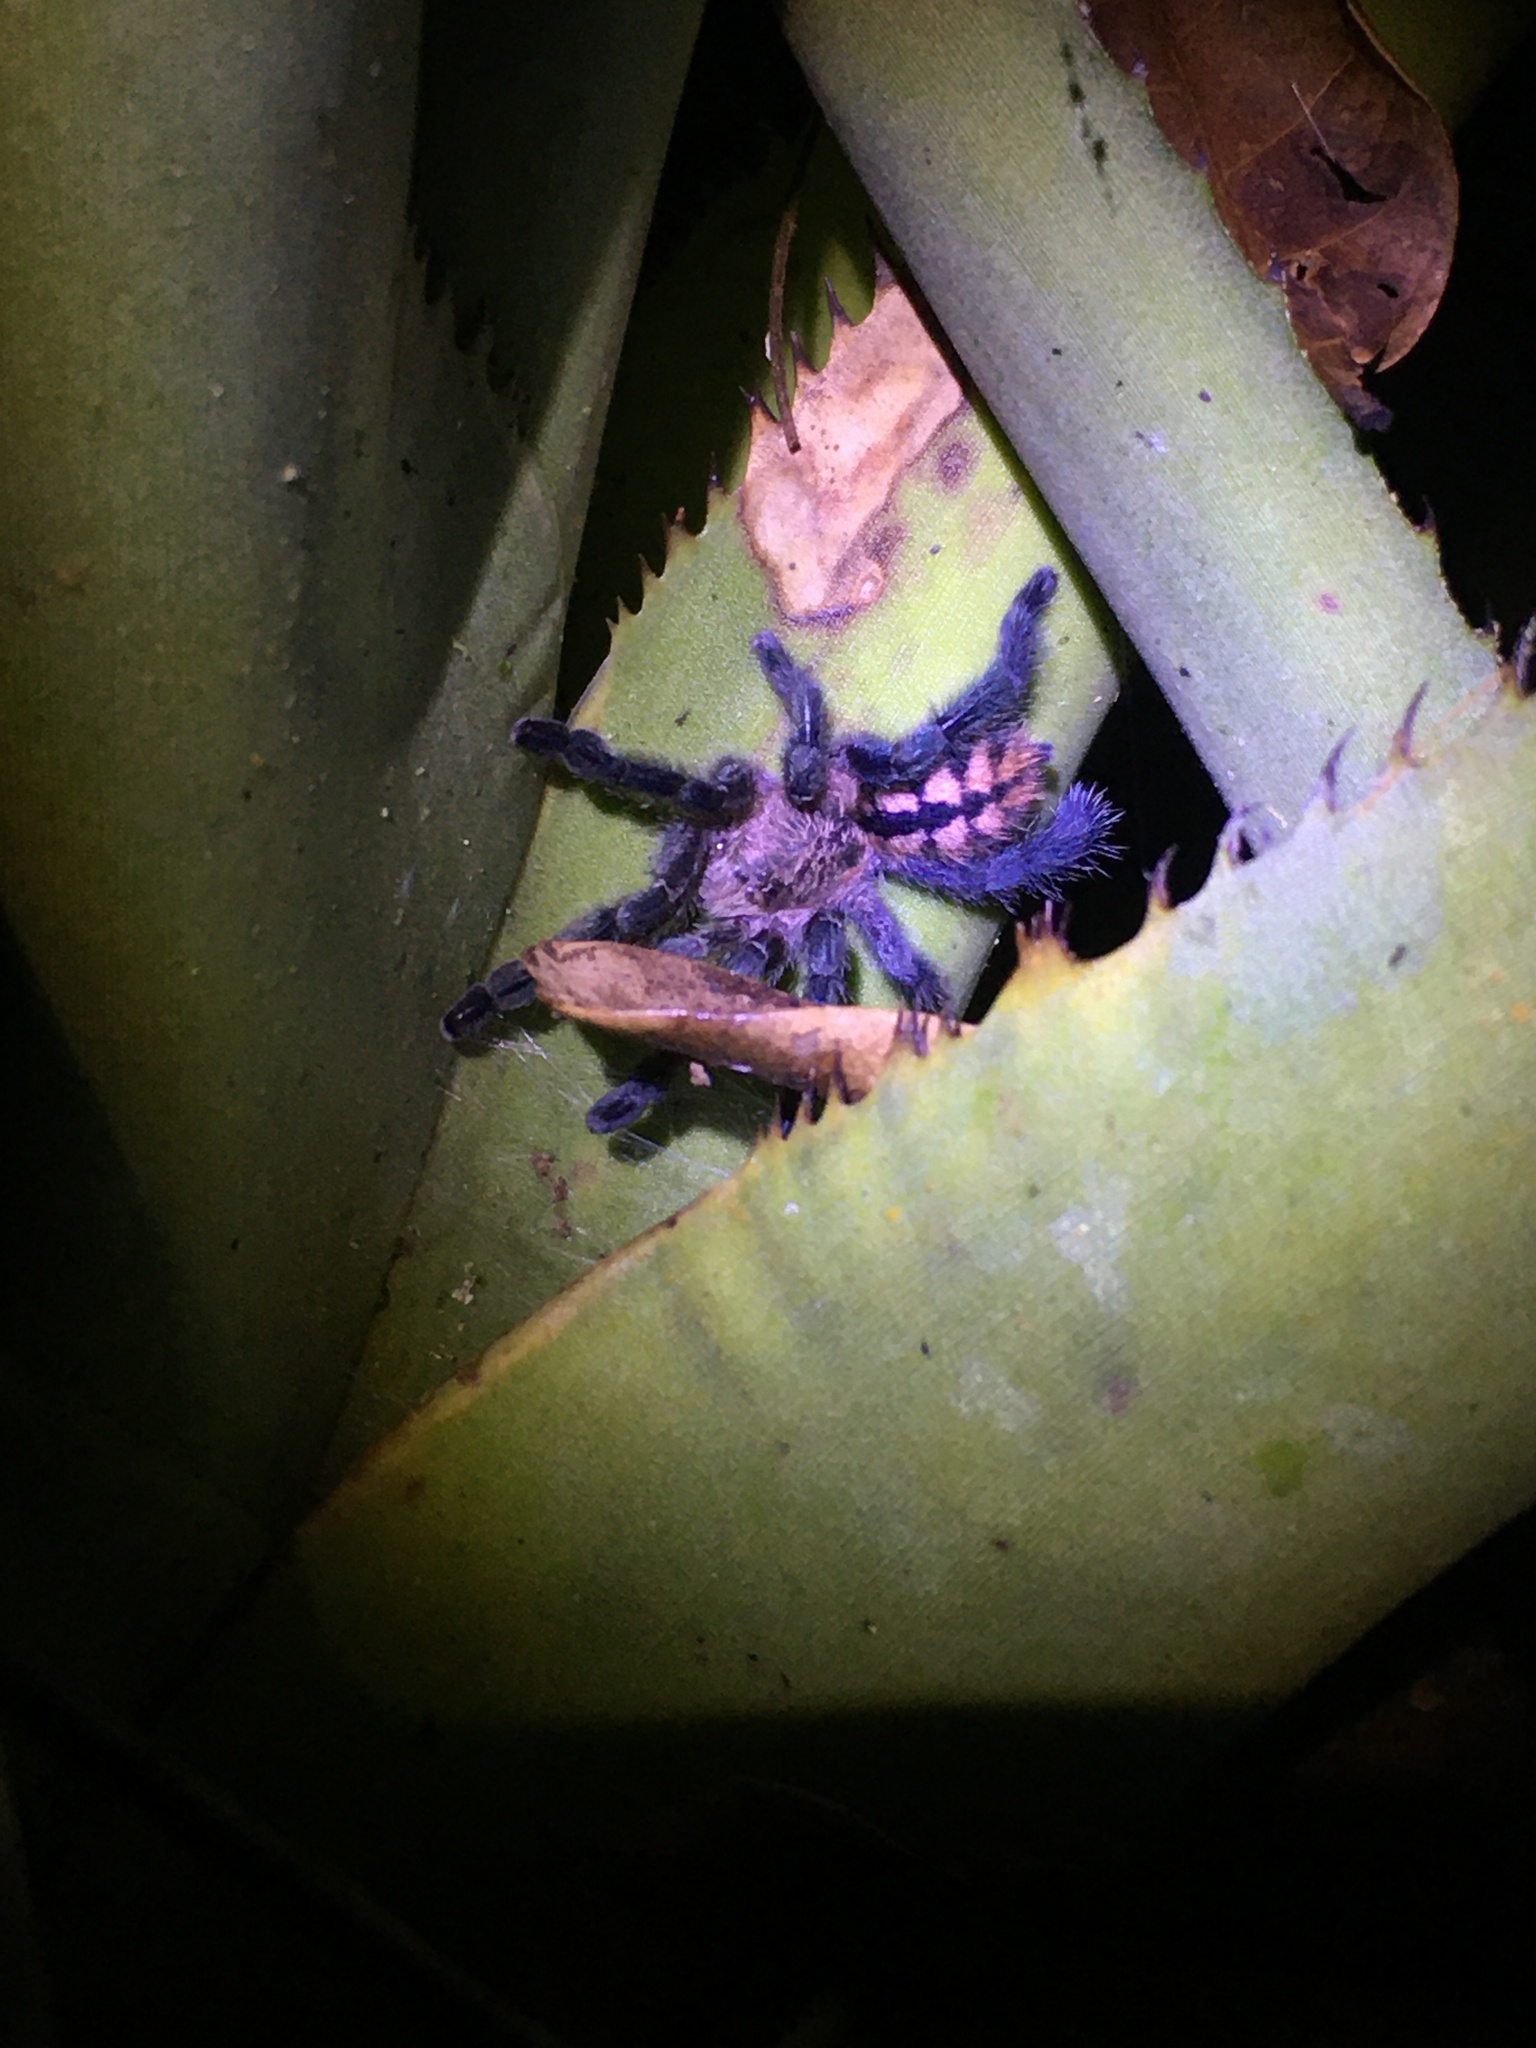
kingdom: Animalia
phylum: Arthropoda
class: Arachnida
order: Araneae
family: Theraphosidae
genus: Pachistopelma
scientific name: Pachistopelma rufonigrum
